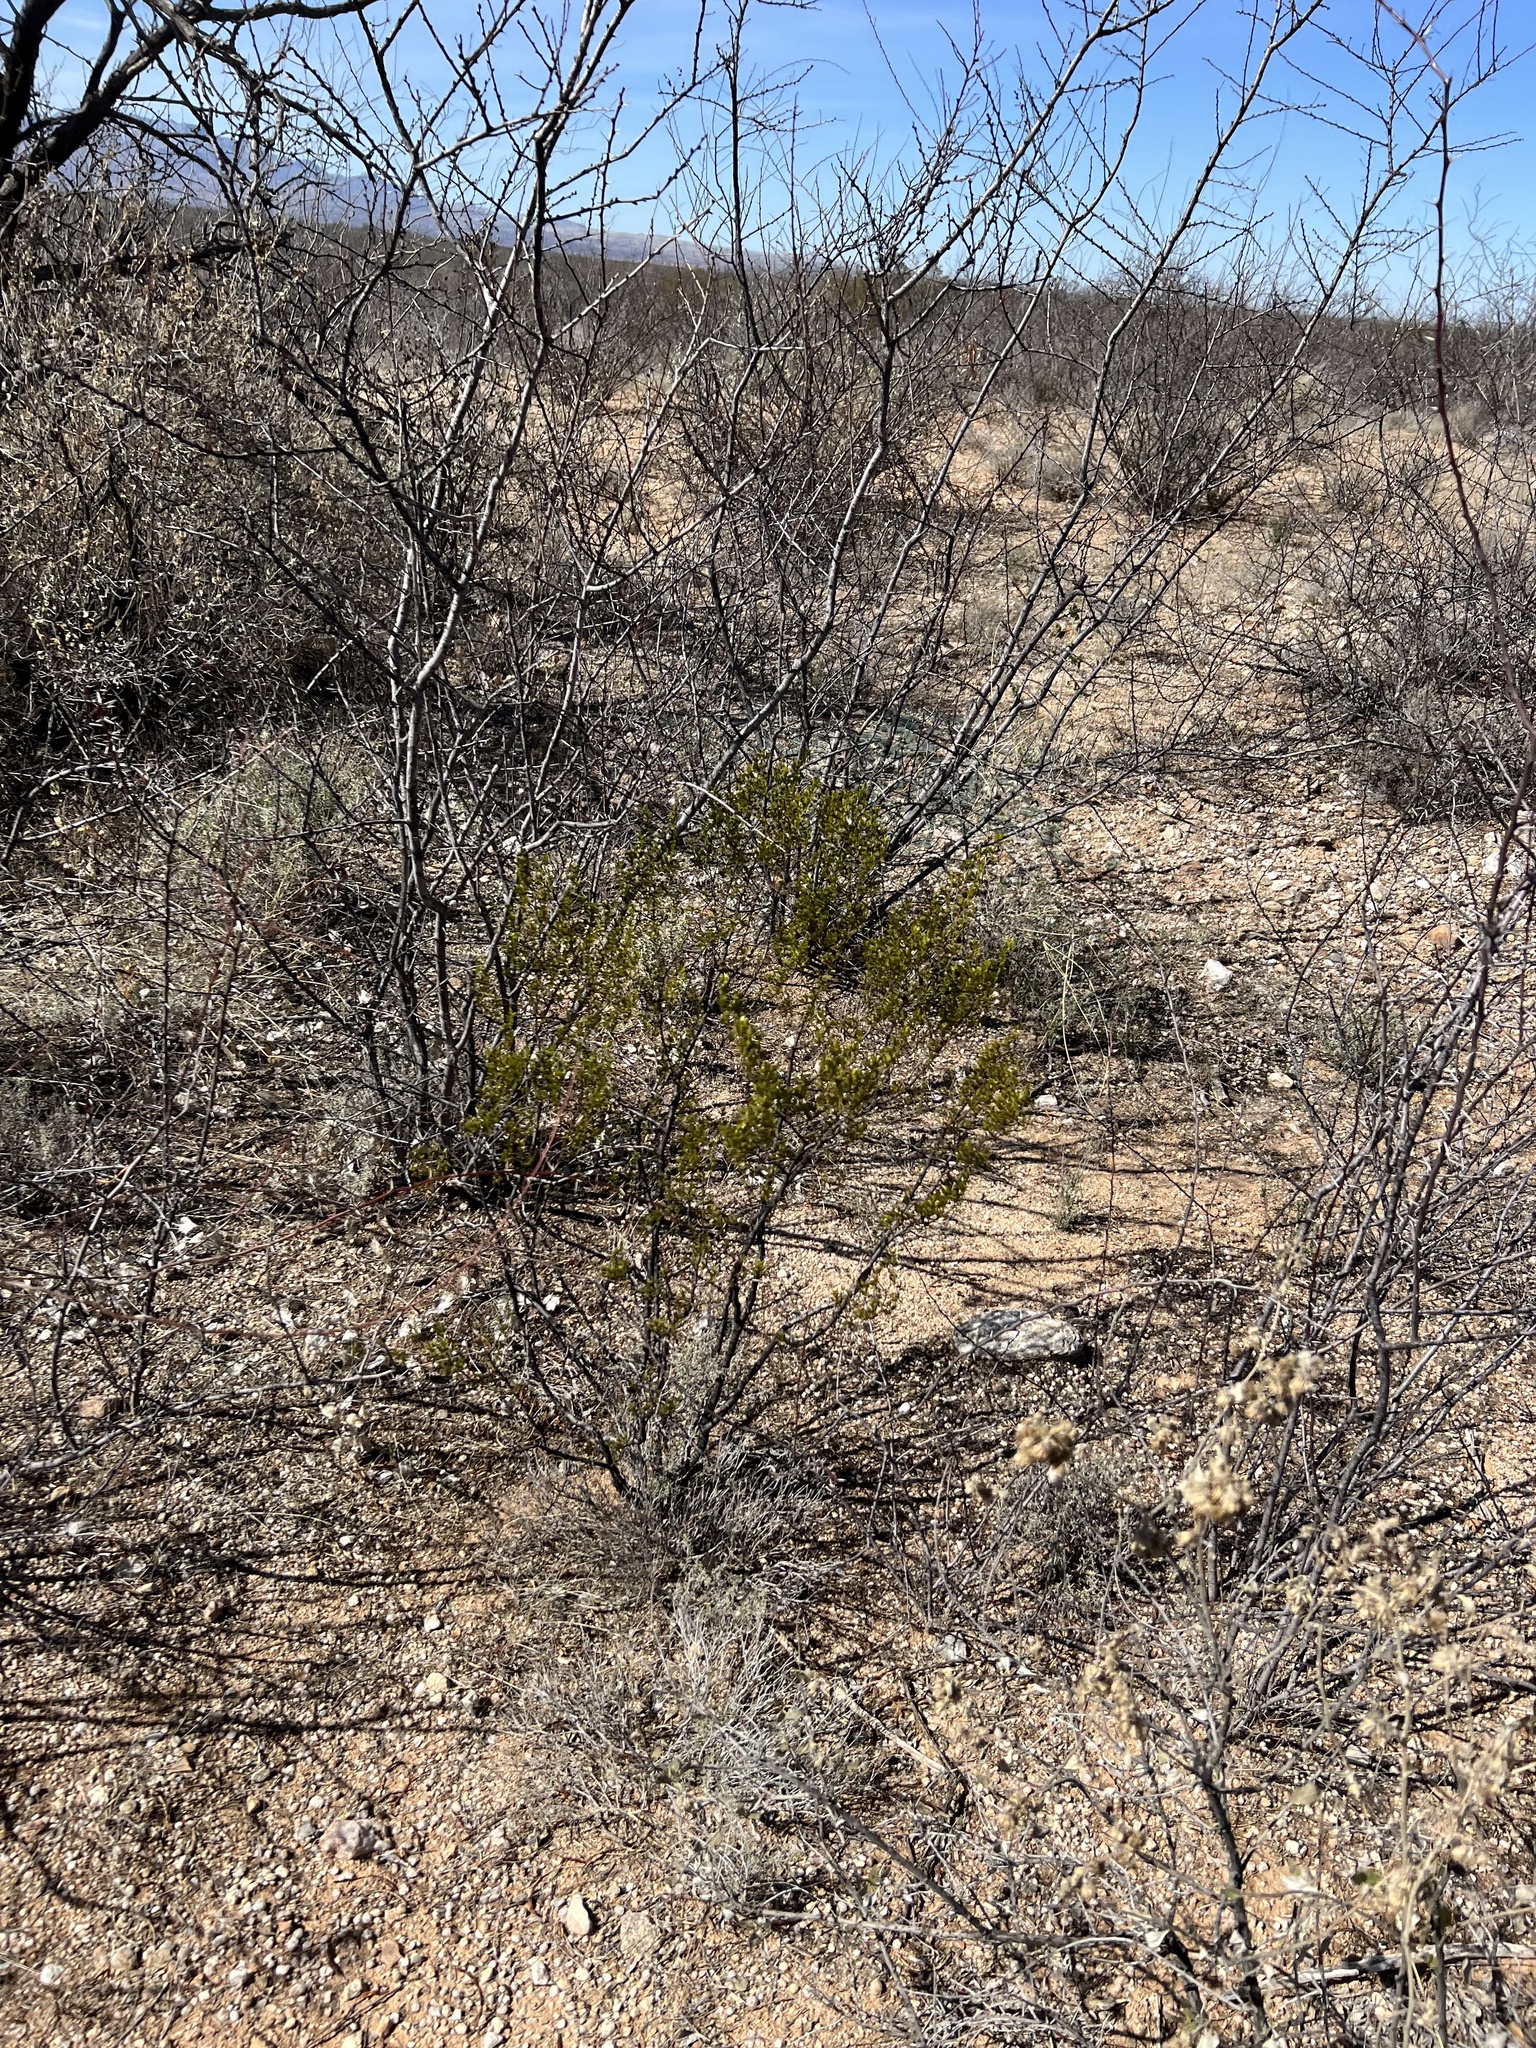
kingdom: Plantae
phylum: Tracheophyta
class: Magnoliopsida
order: Zygophyllales
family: Zygophyllaceae
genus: Larrea
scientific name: Larrea tridentata
